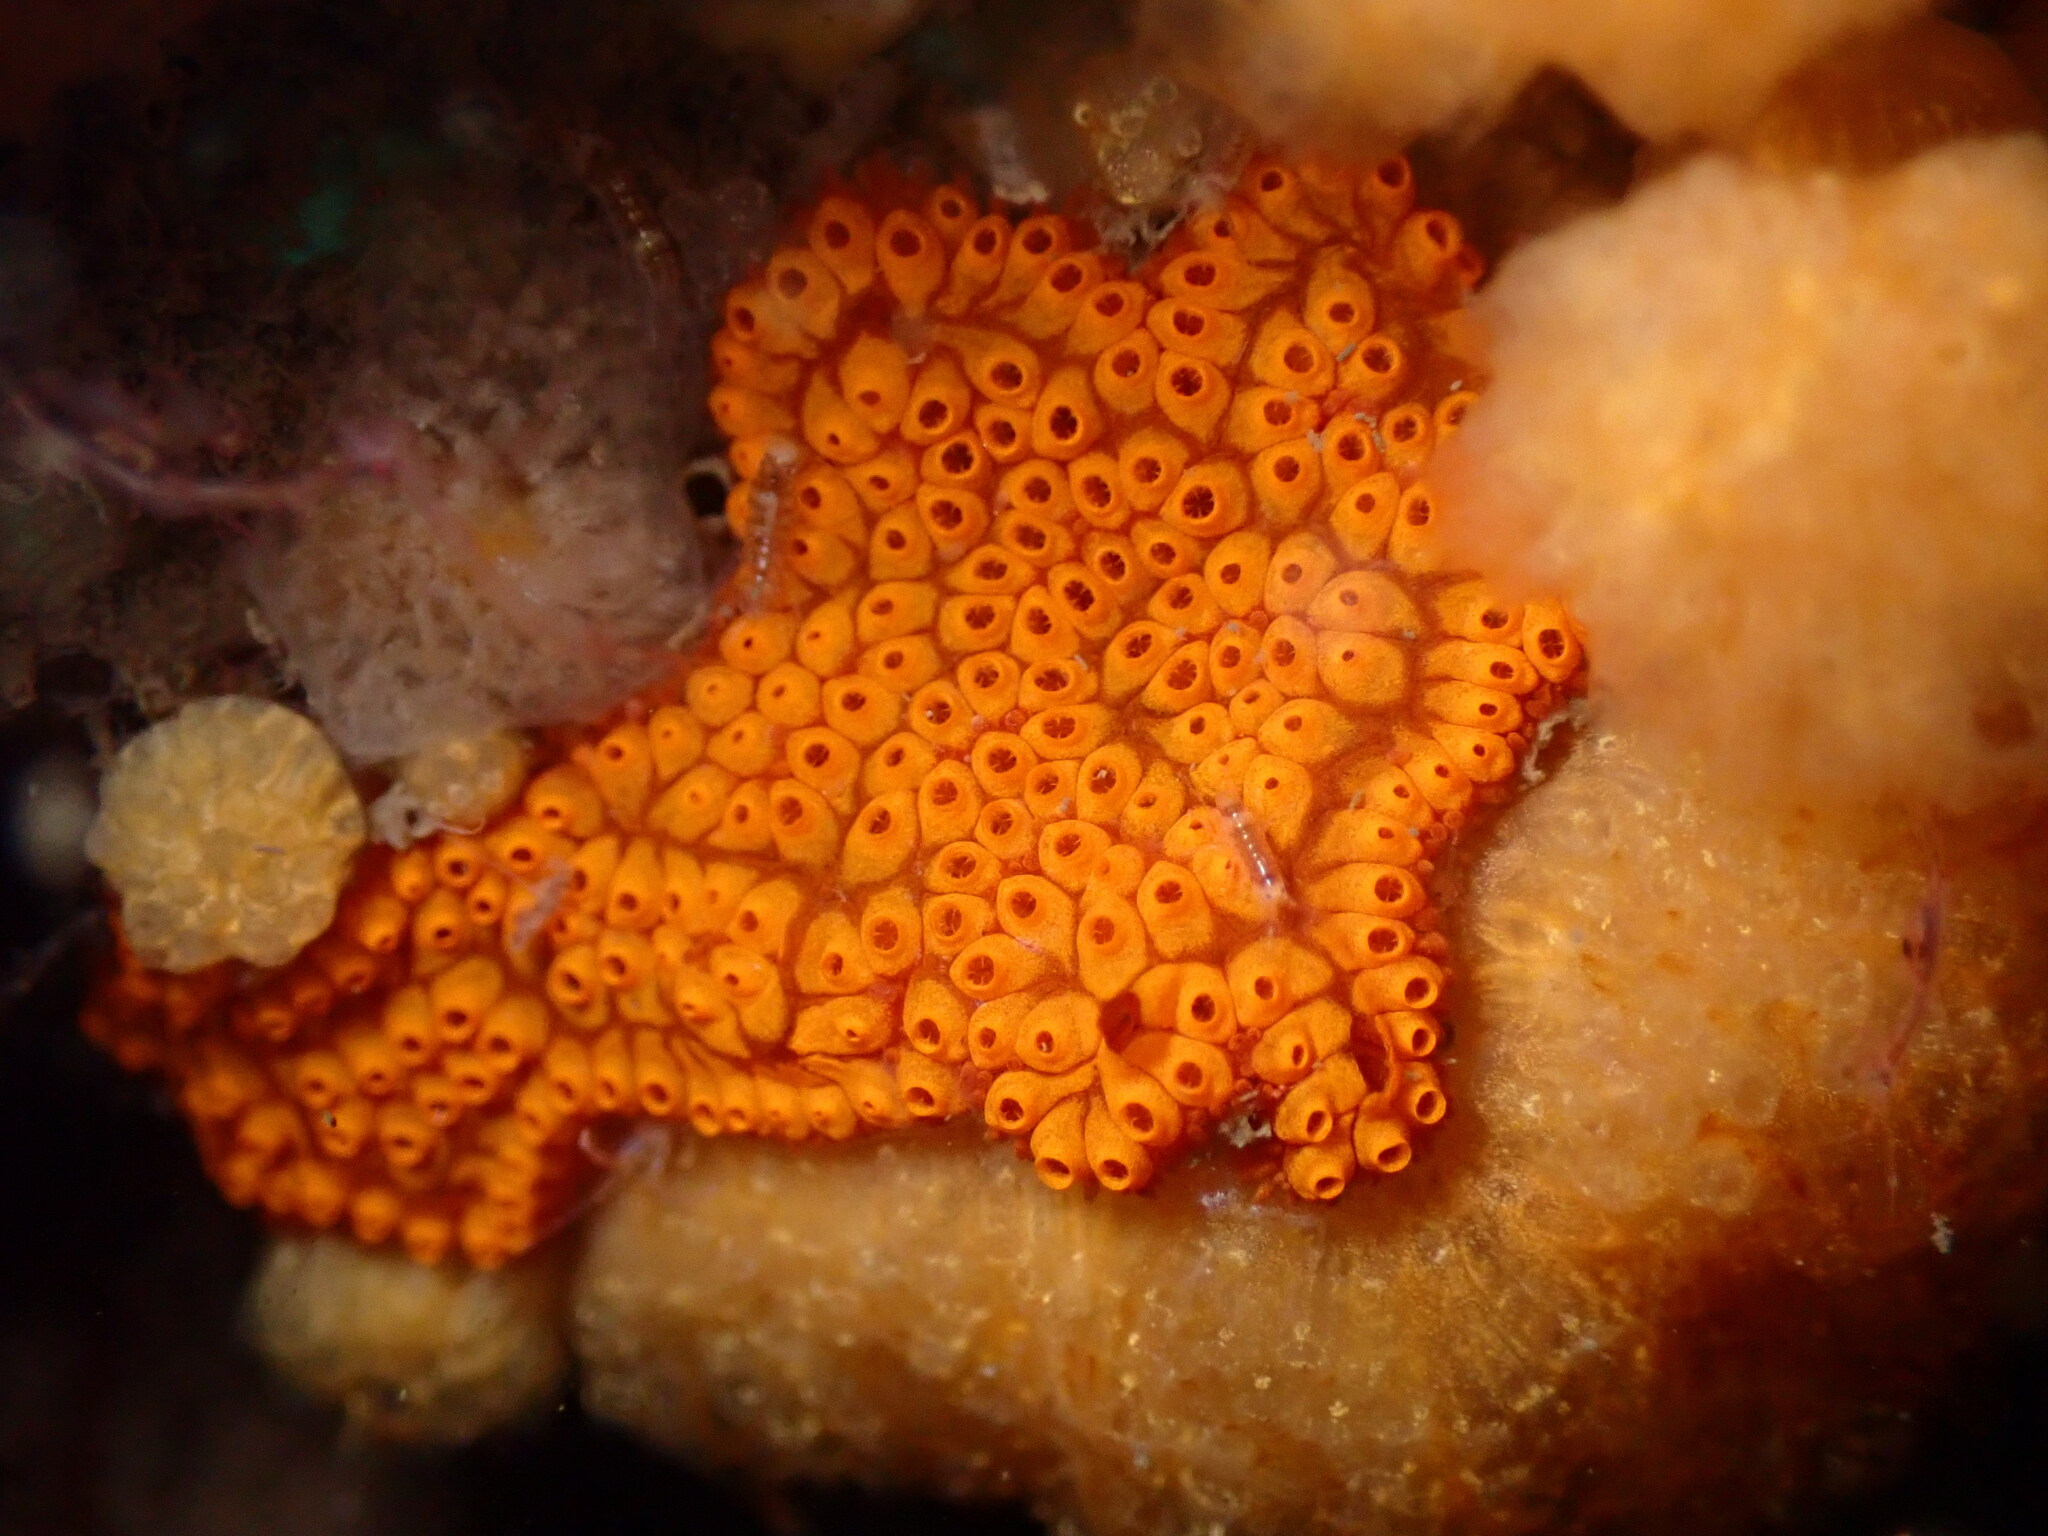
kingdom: Animalia
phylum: Chordata
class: Ascidiacea
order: Stolidobranchia
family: Styelidae
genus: Botrylloides
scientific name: Botrylloides diegensis
